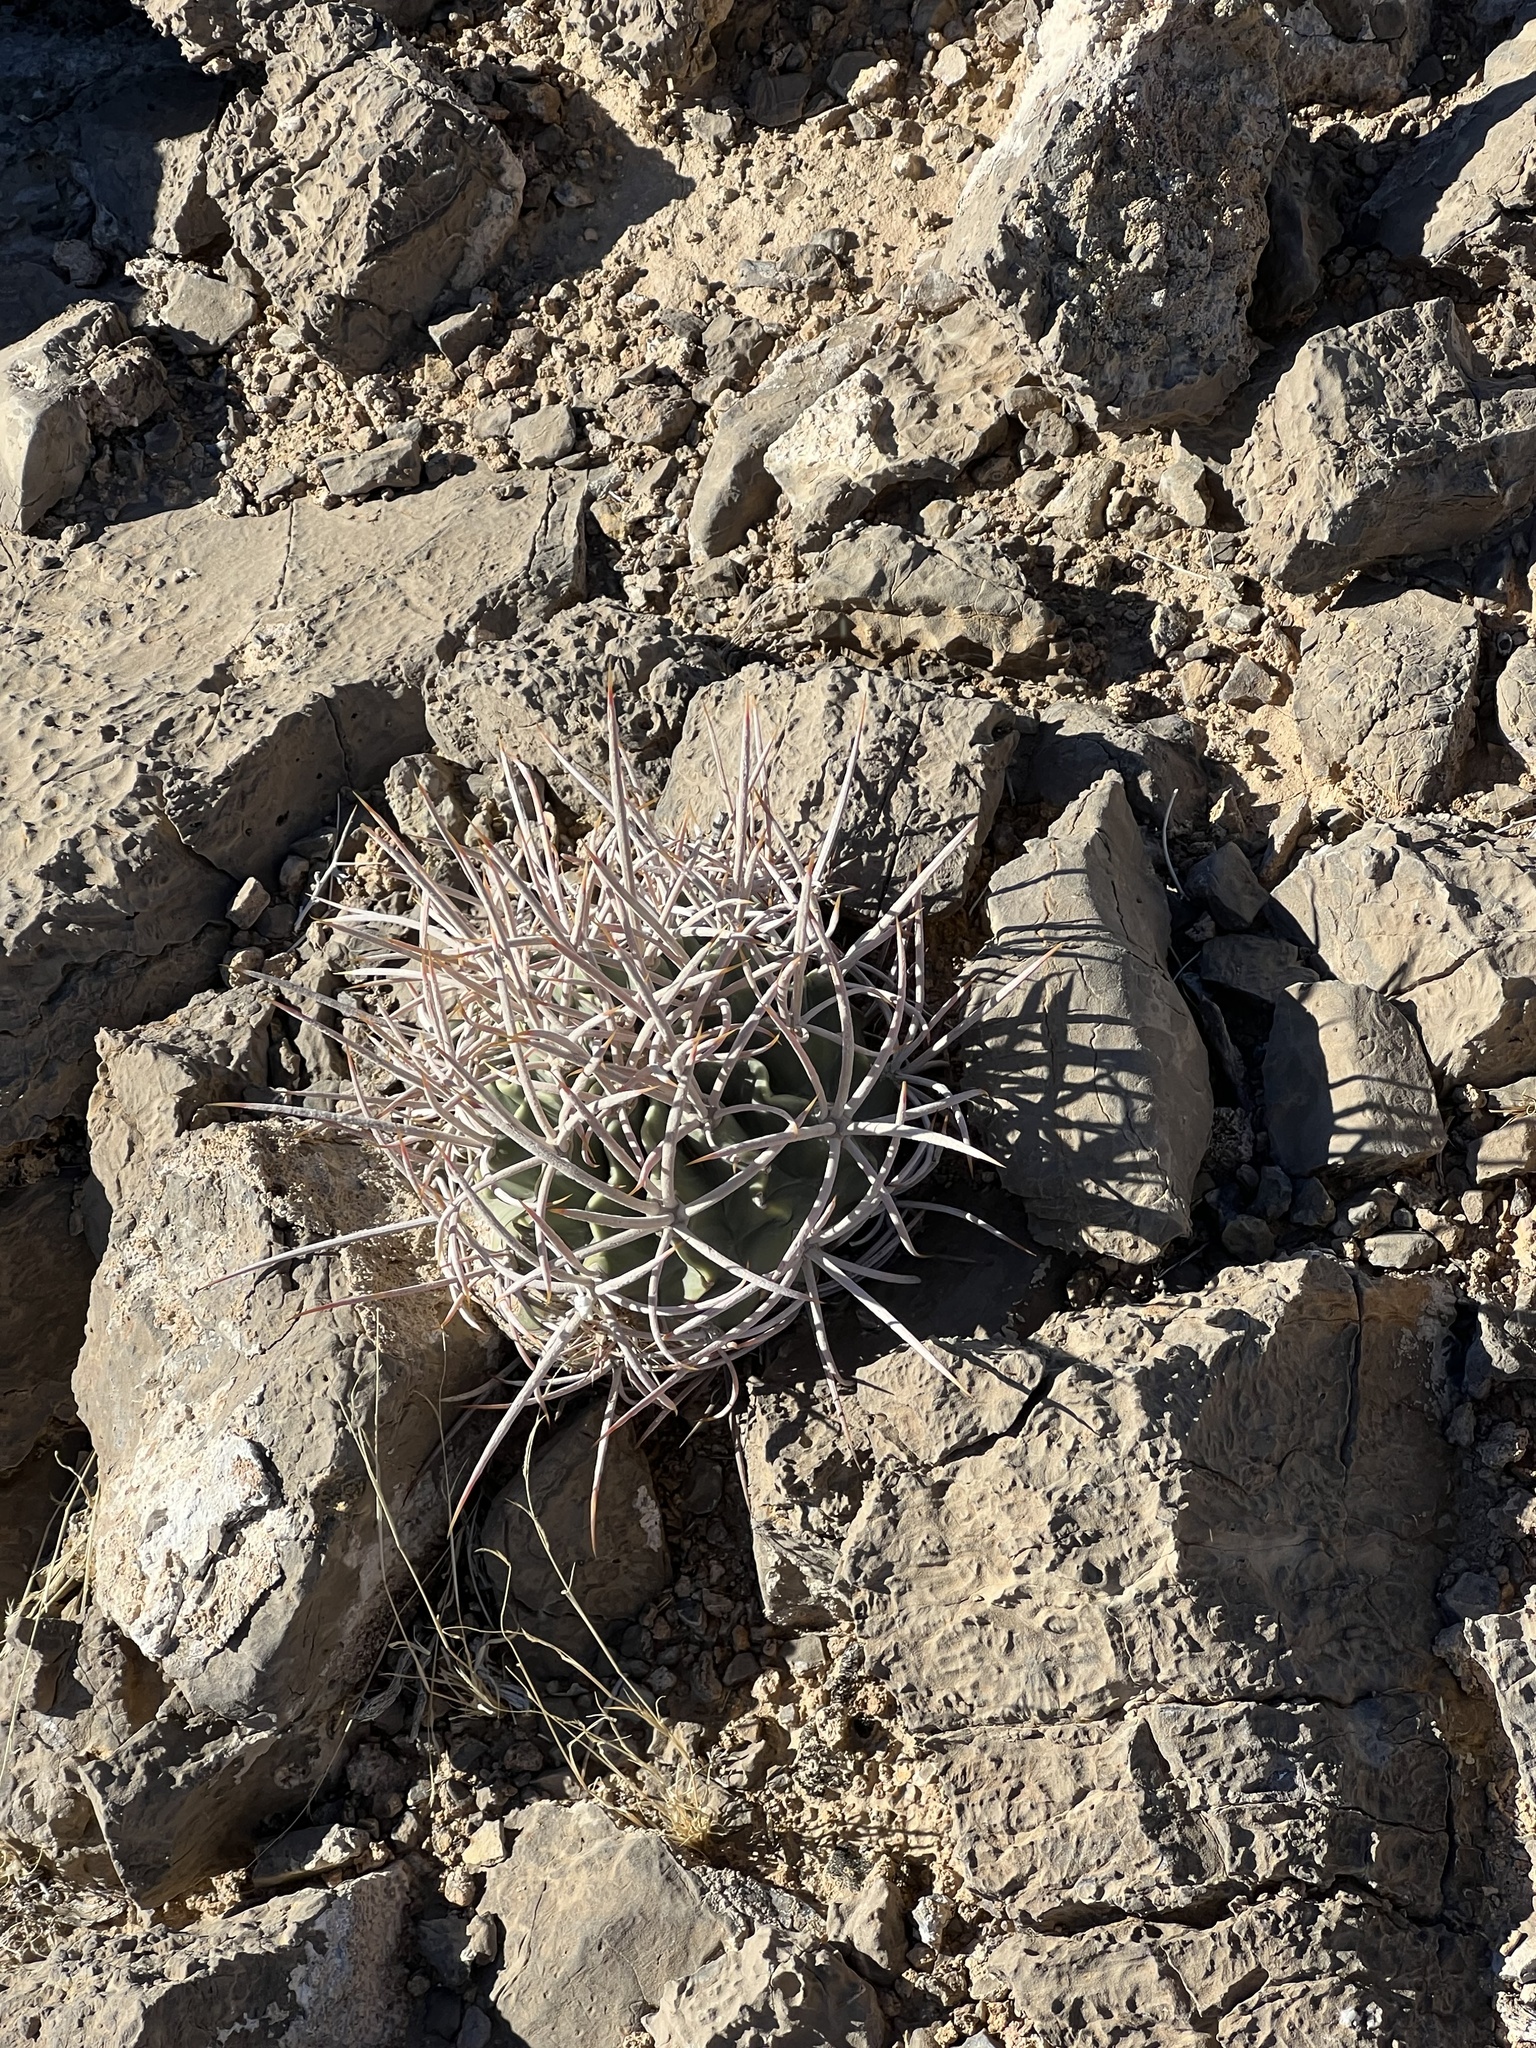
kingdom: Plantae
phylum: Tracheophyta
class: Magnoliopsida
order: Caryophyllales
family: Cactaceae
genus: Echinocactus
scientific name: Echinocactus polycephalus
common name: Cottontop cactus
